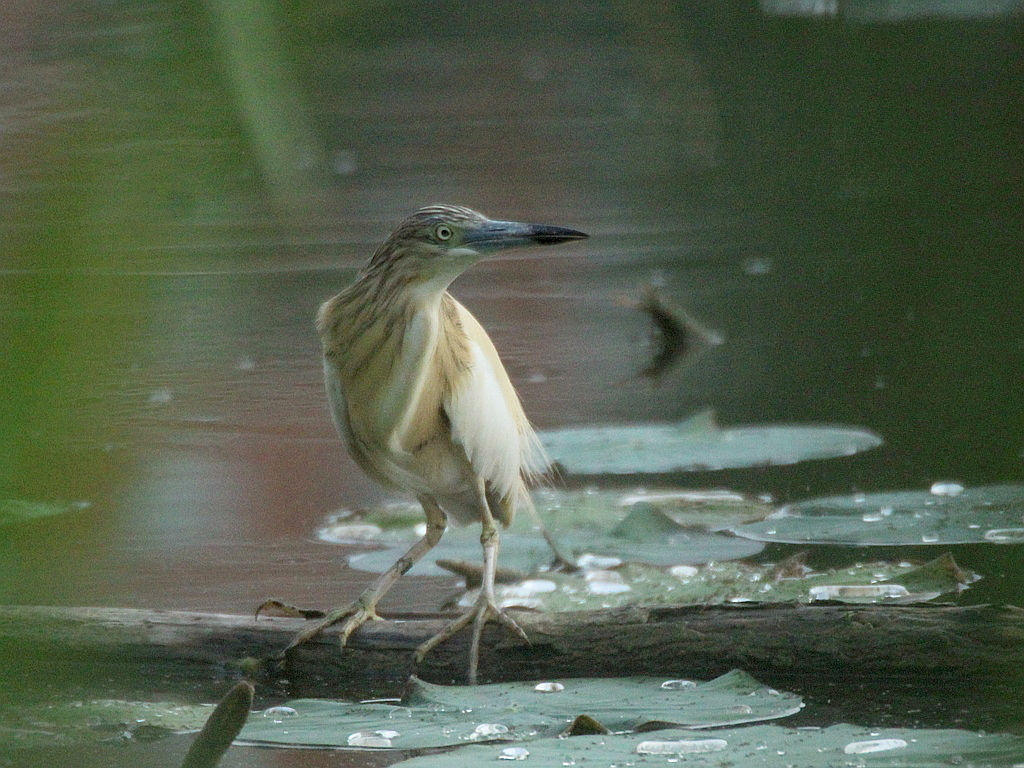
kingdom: Animalia
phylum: Chordata
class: Aves
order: Pelecaniformes
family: Ardeidae
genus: Ardeola
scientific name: Ardeola ralloides
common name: Squacco heron
